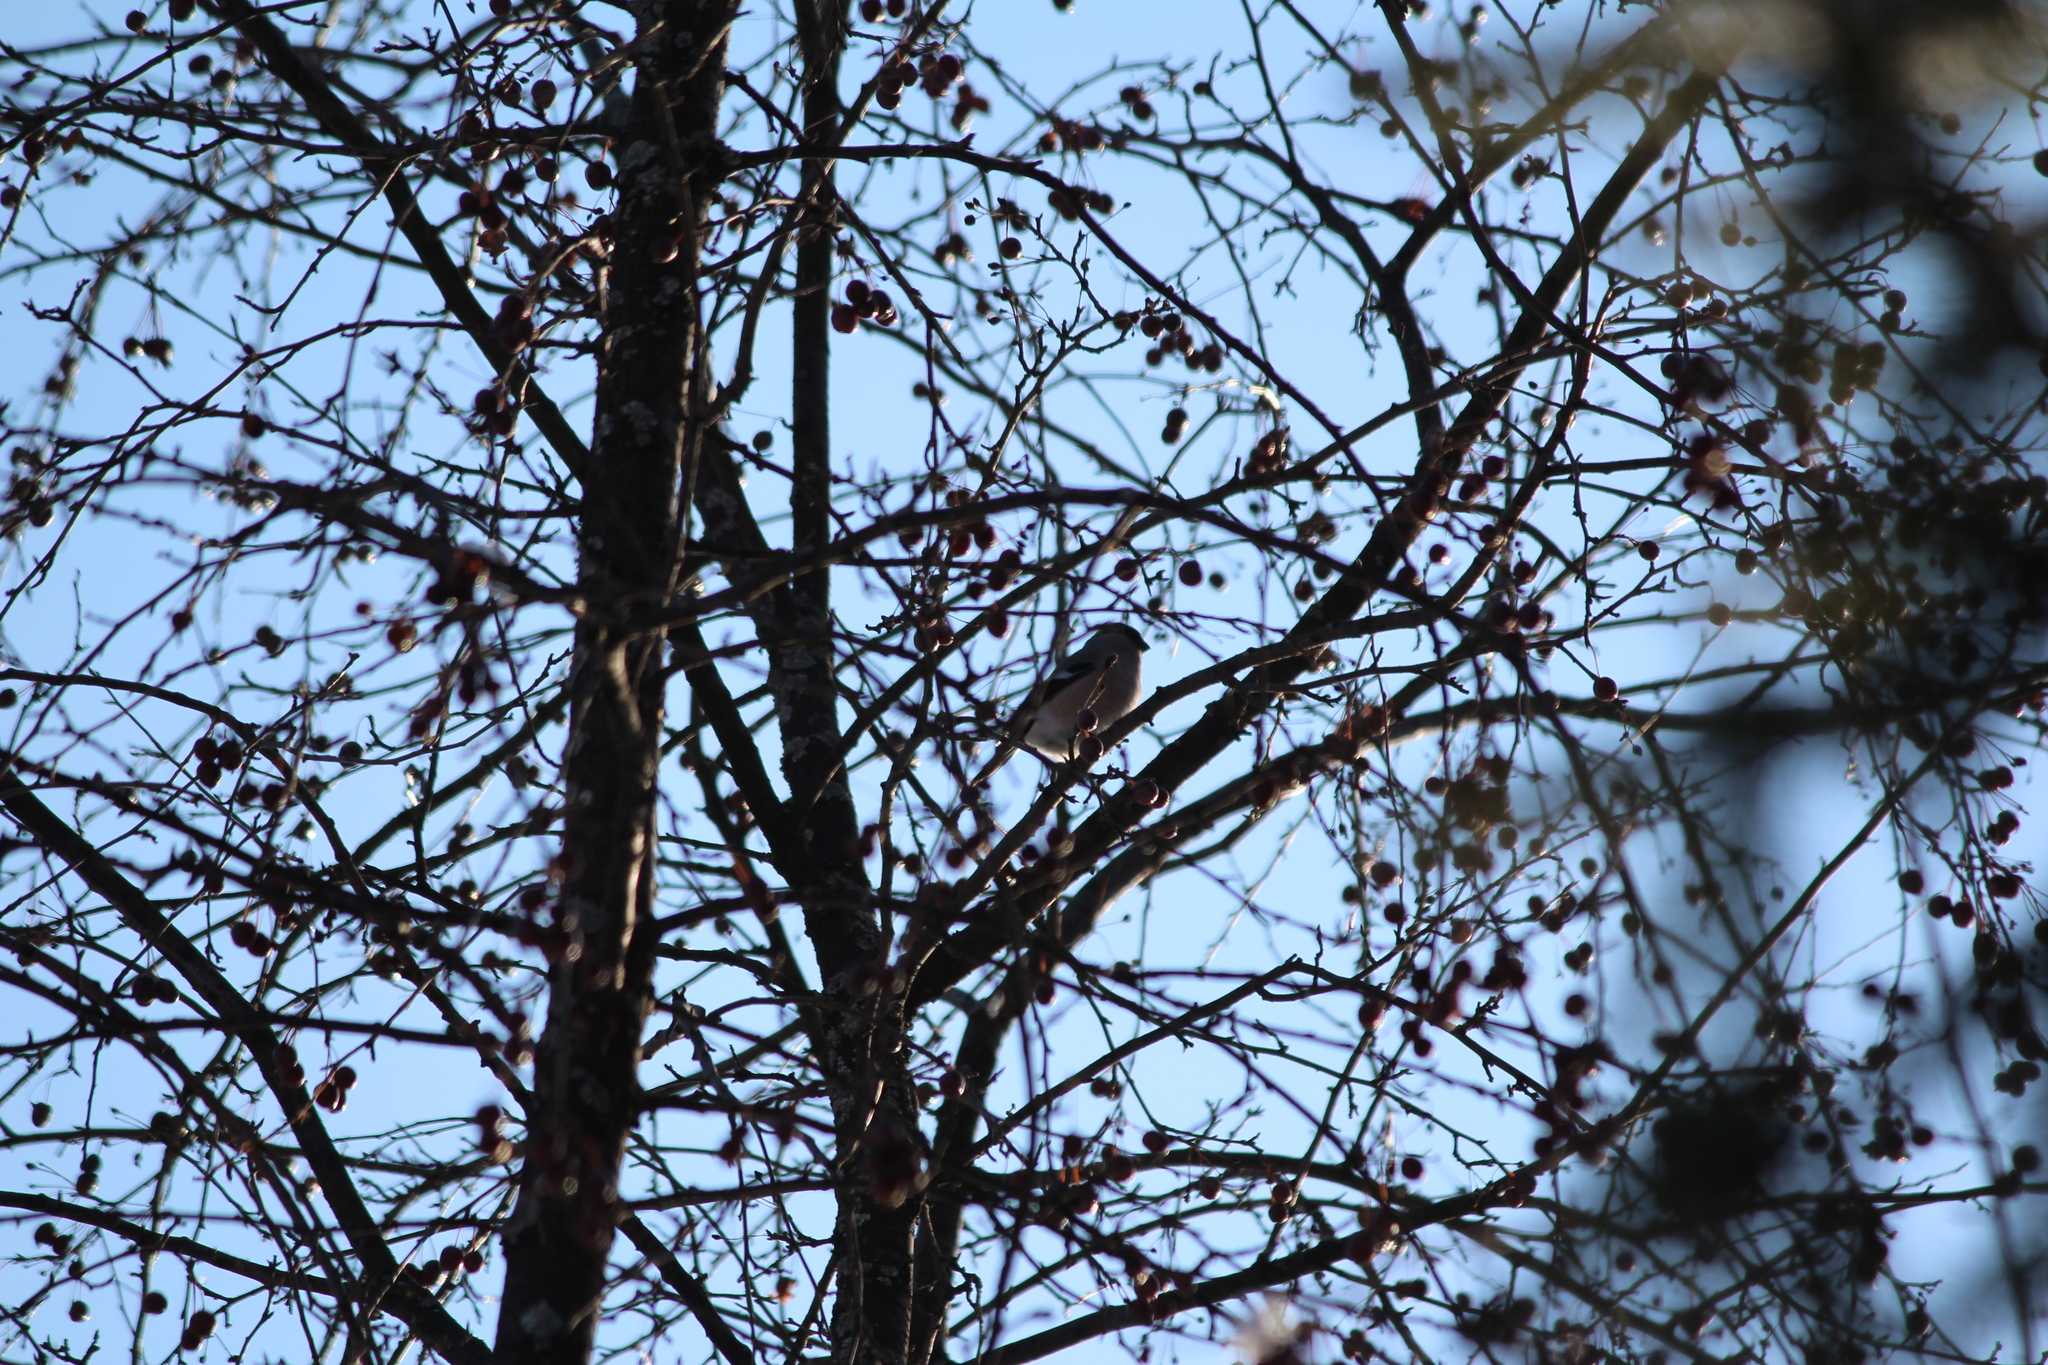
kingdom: Animalia
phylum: Chordata
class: Aves
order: Passeriformes
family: Fringillidae
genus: Pyrrhula
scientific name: Pyrrhula pyrrhula
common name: Eurasian bullfinch
